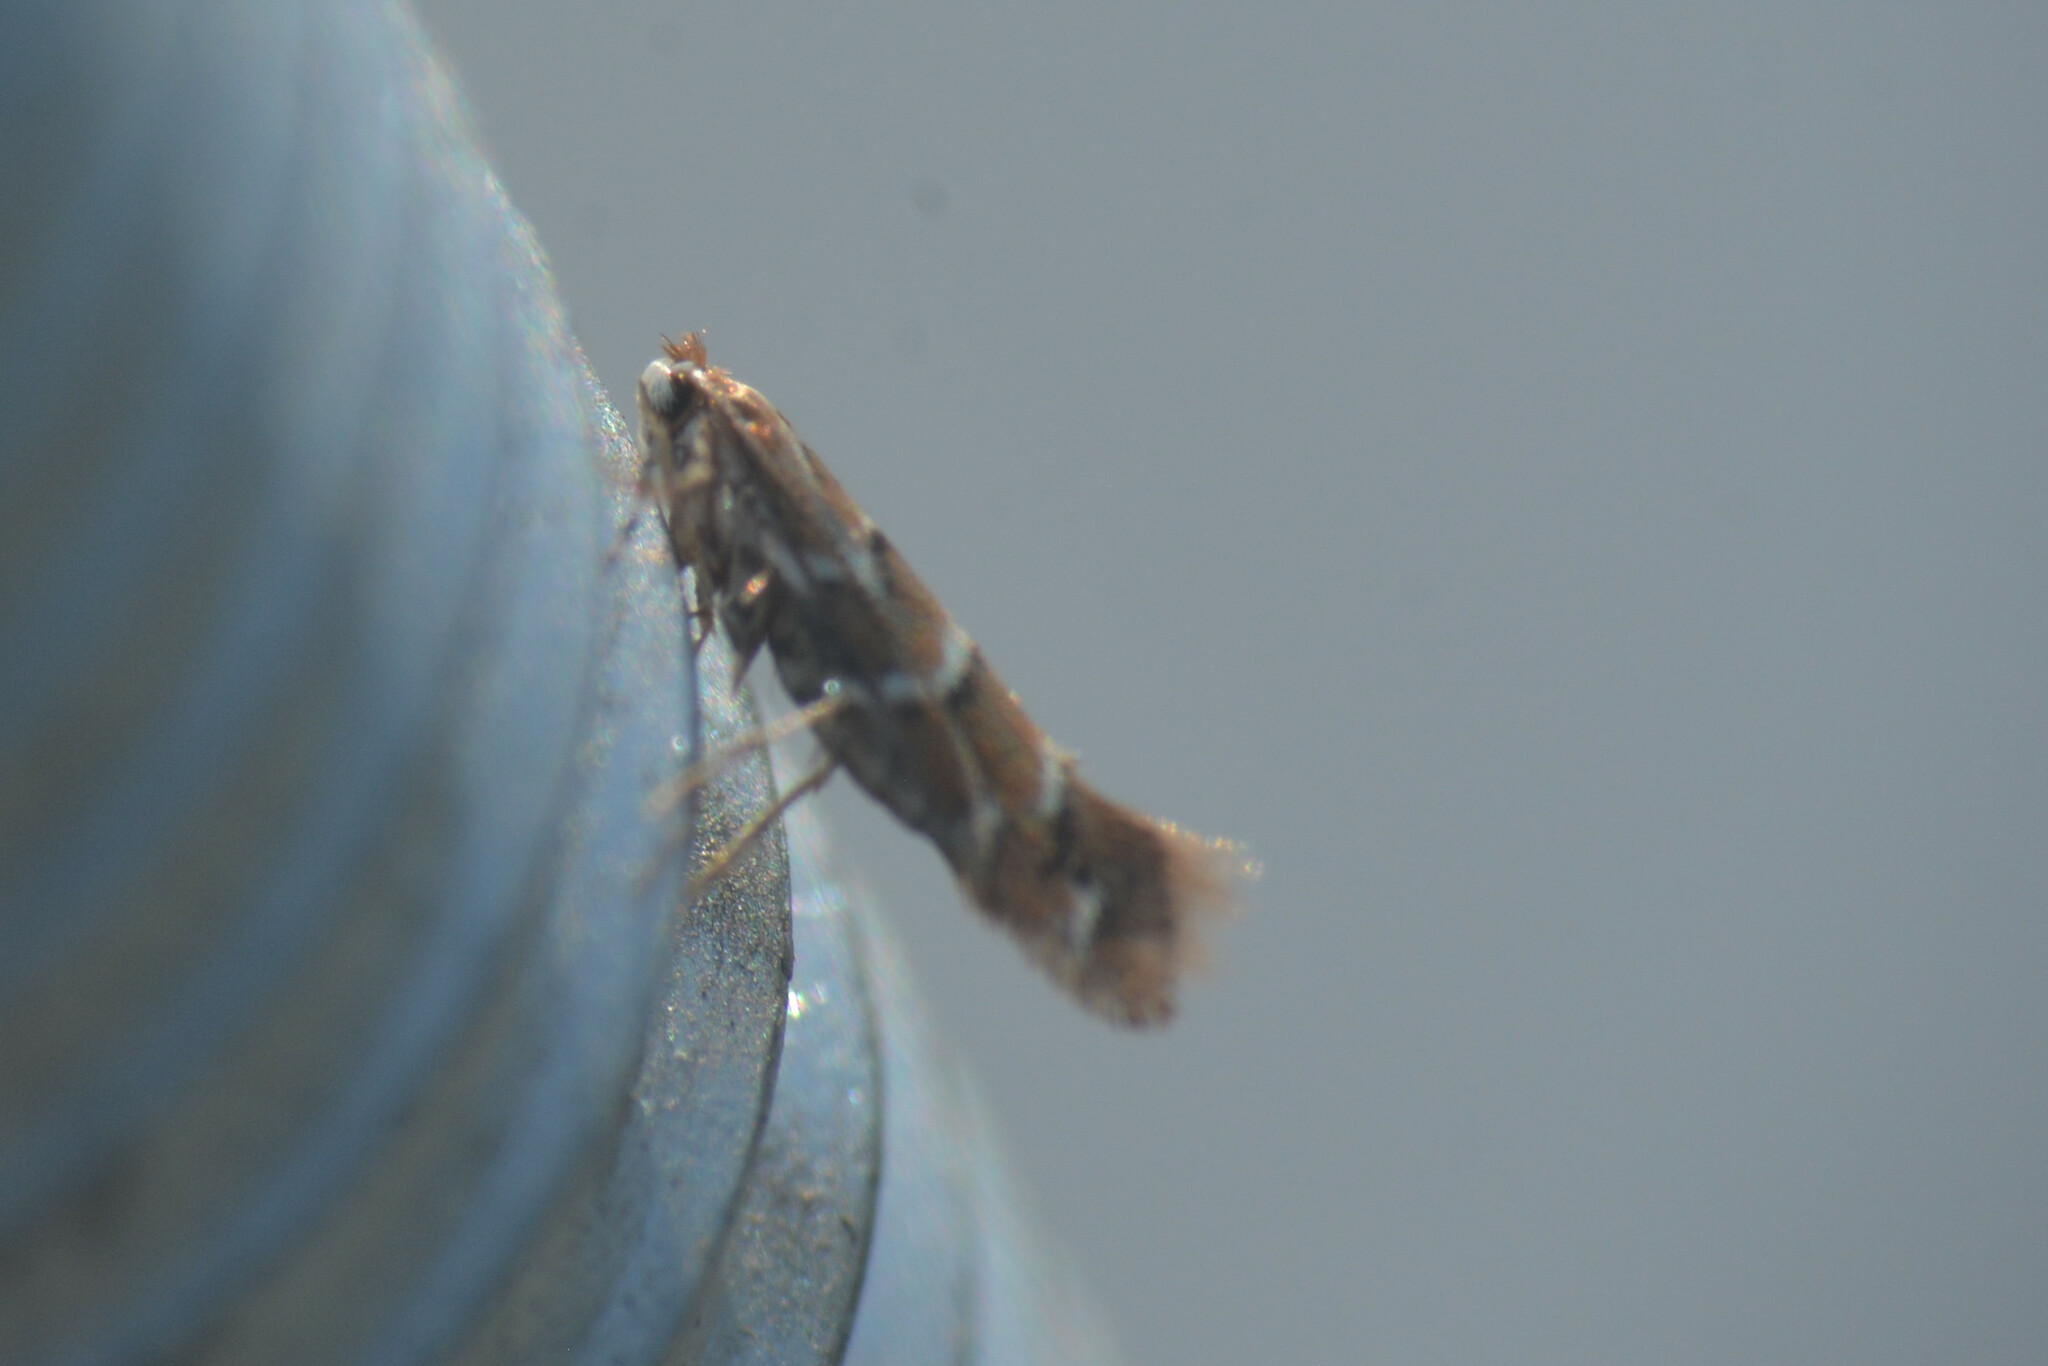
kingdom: Animalia
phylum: Arthropoda
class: Insecta
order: Lepidoptera
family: Gracillariidae
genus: Cameraria
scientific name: Cameraria ohridella
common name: Horse-chestnut leaf-miner
